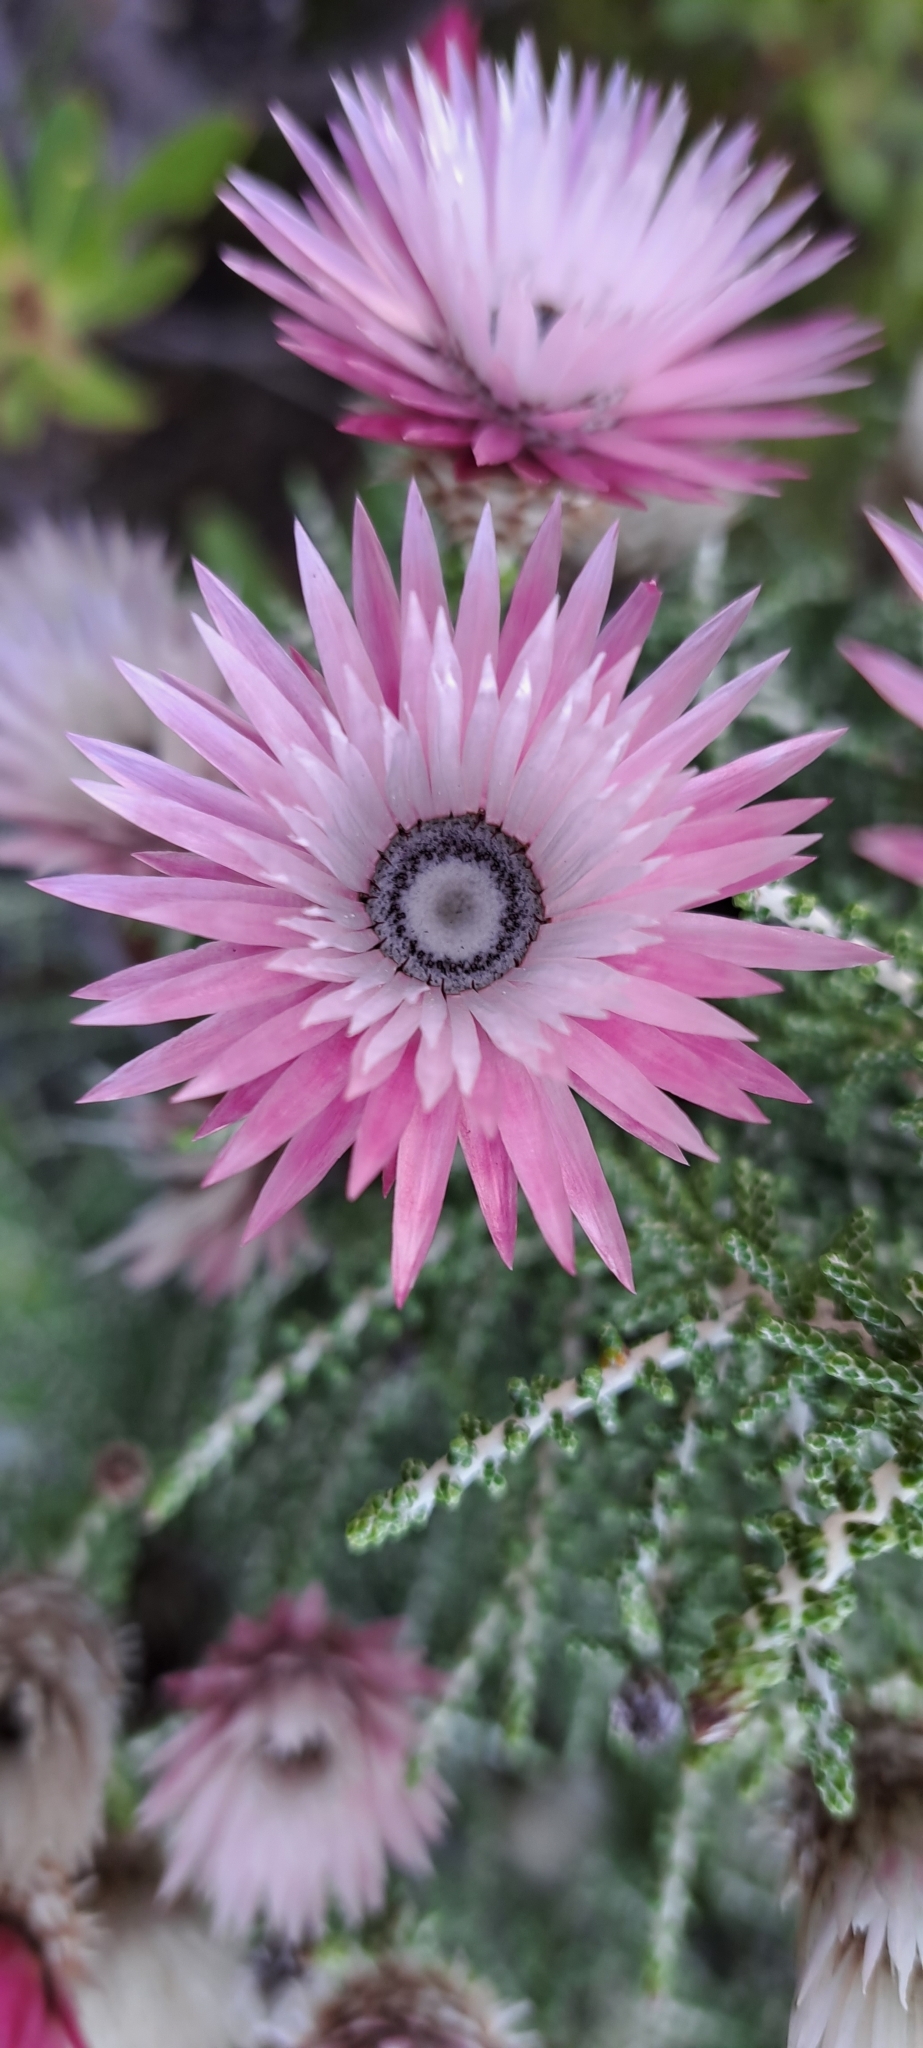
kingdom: Plantae
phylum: Tracheophyta
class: Magnoliopsida
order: Asterales
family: Asteraceae
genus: Phaenocoma
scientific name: Phaenocoma prolifera
